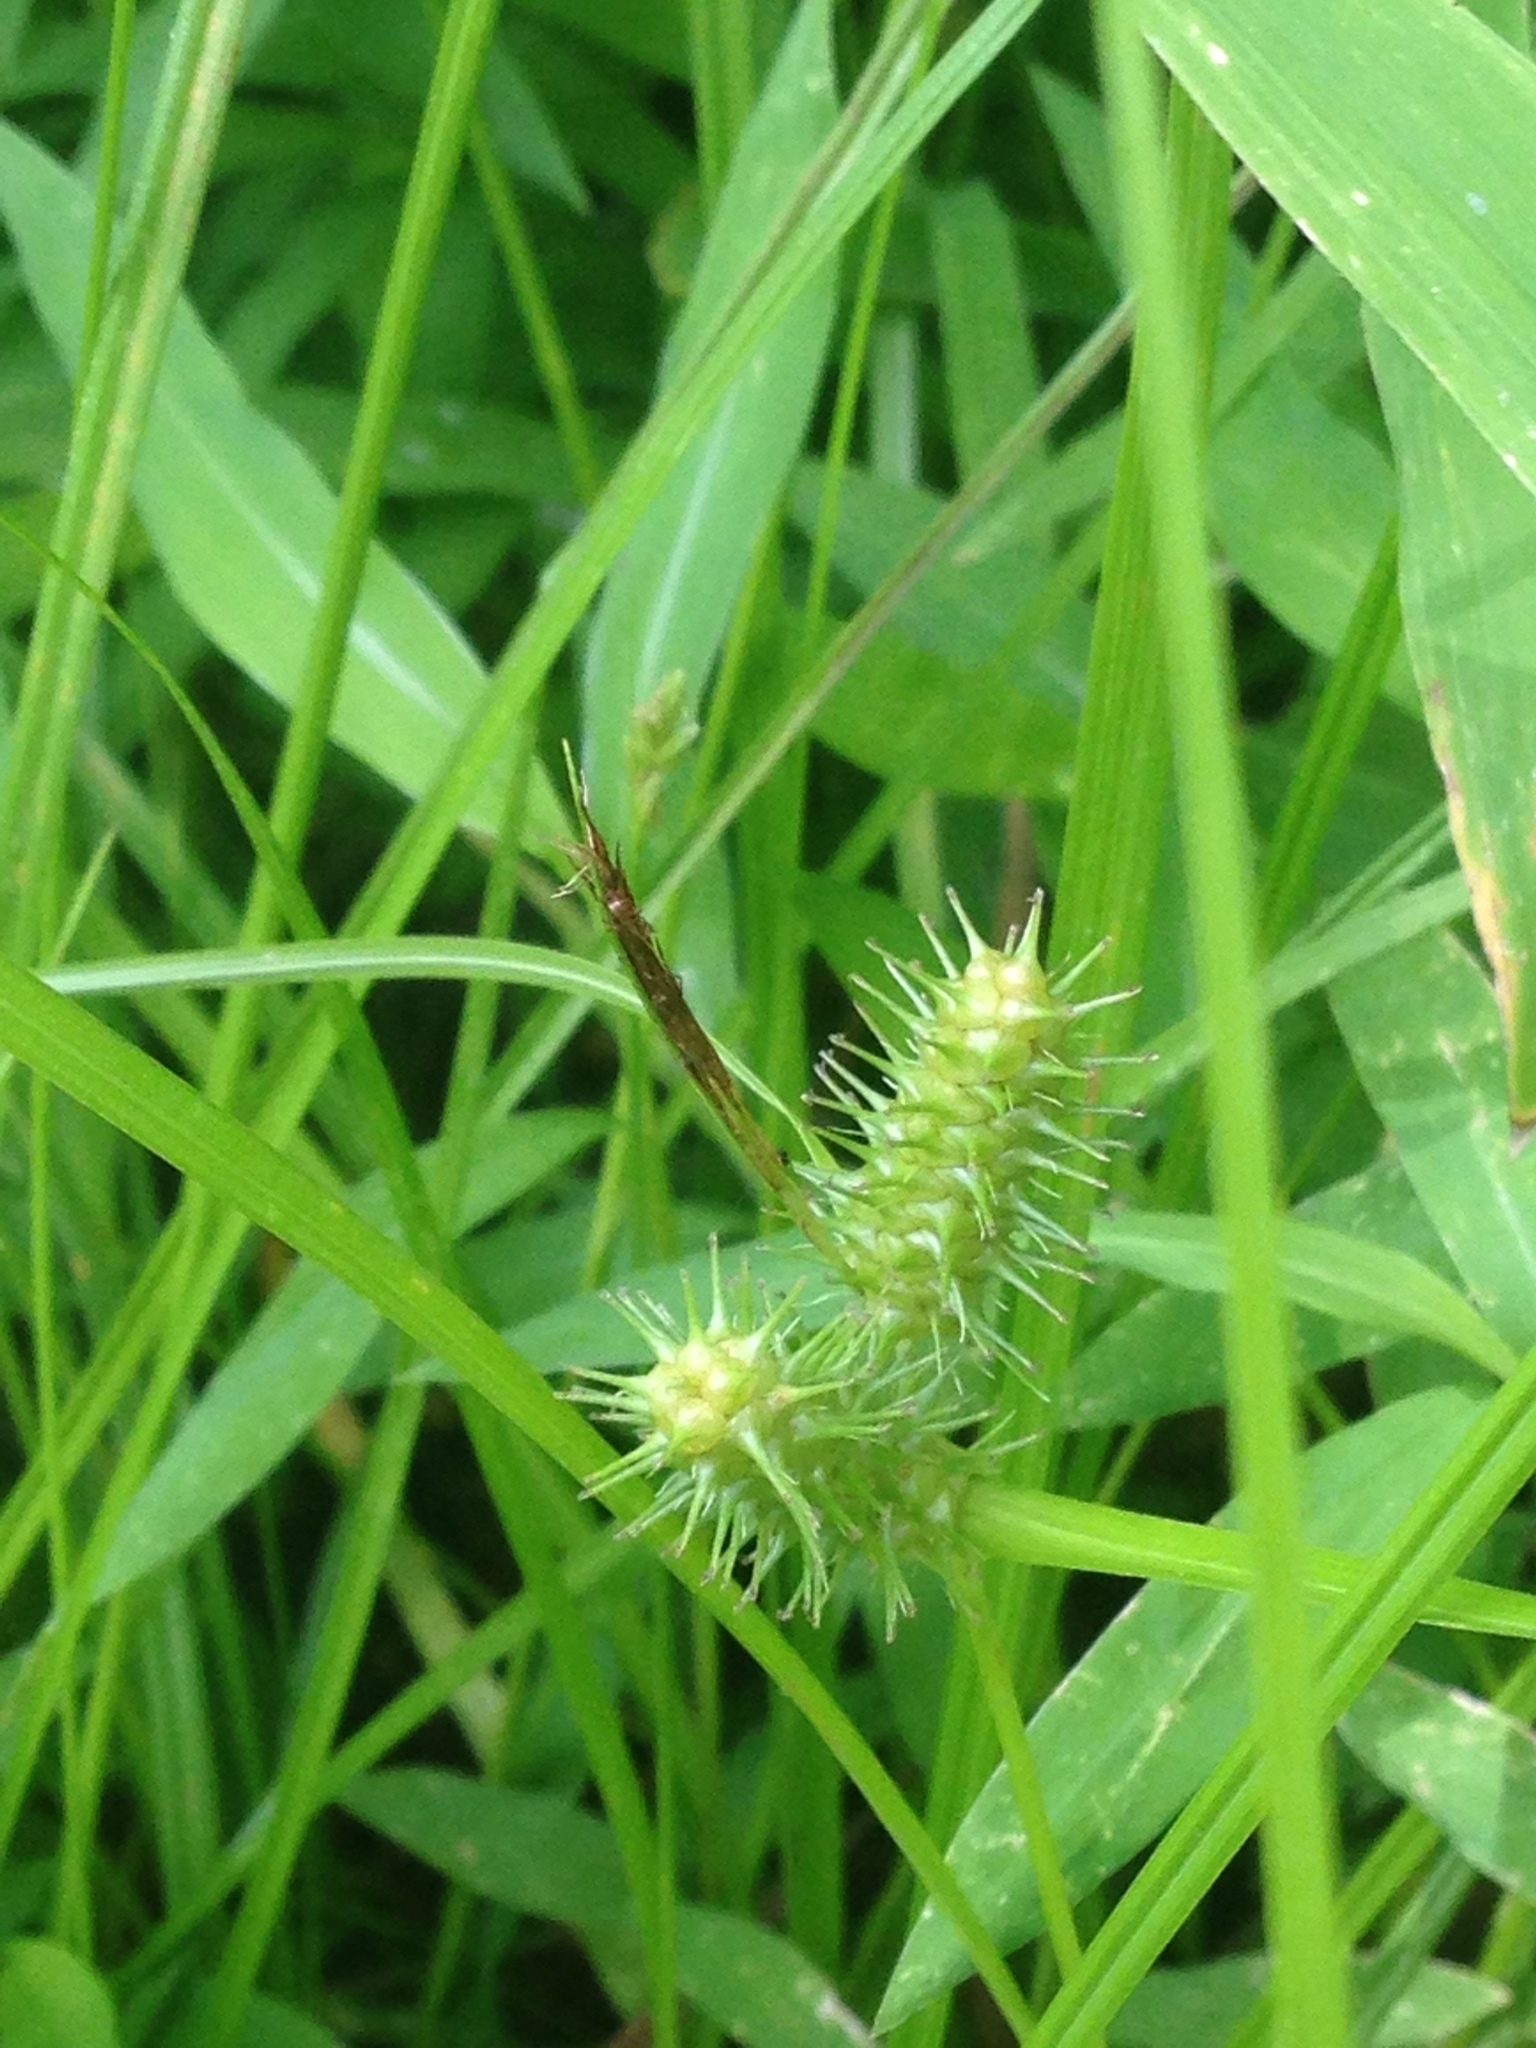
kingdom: Plantae
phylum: Tracheophyta
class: Liliopsida
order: Poales
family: Cyperaceae
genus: Carex
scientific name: Carex lurida
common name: Sallow sedge
